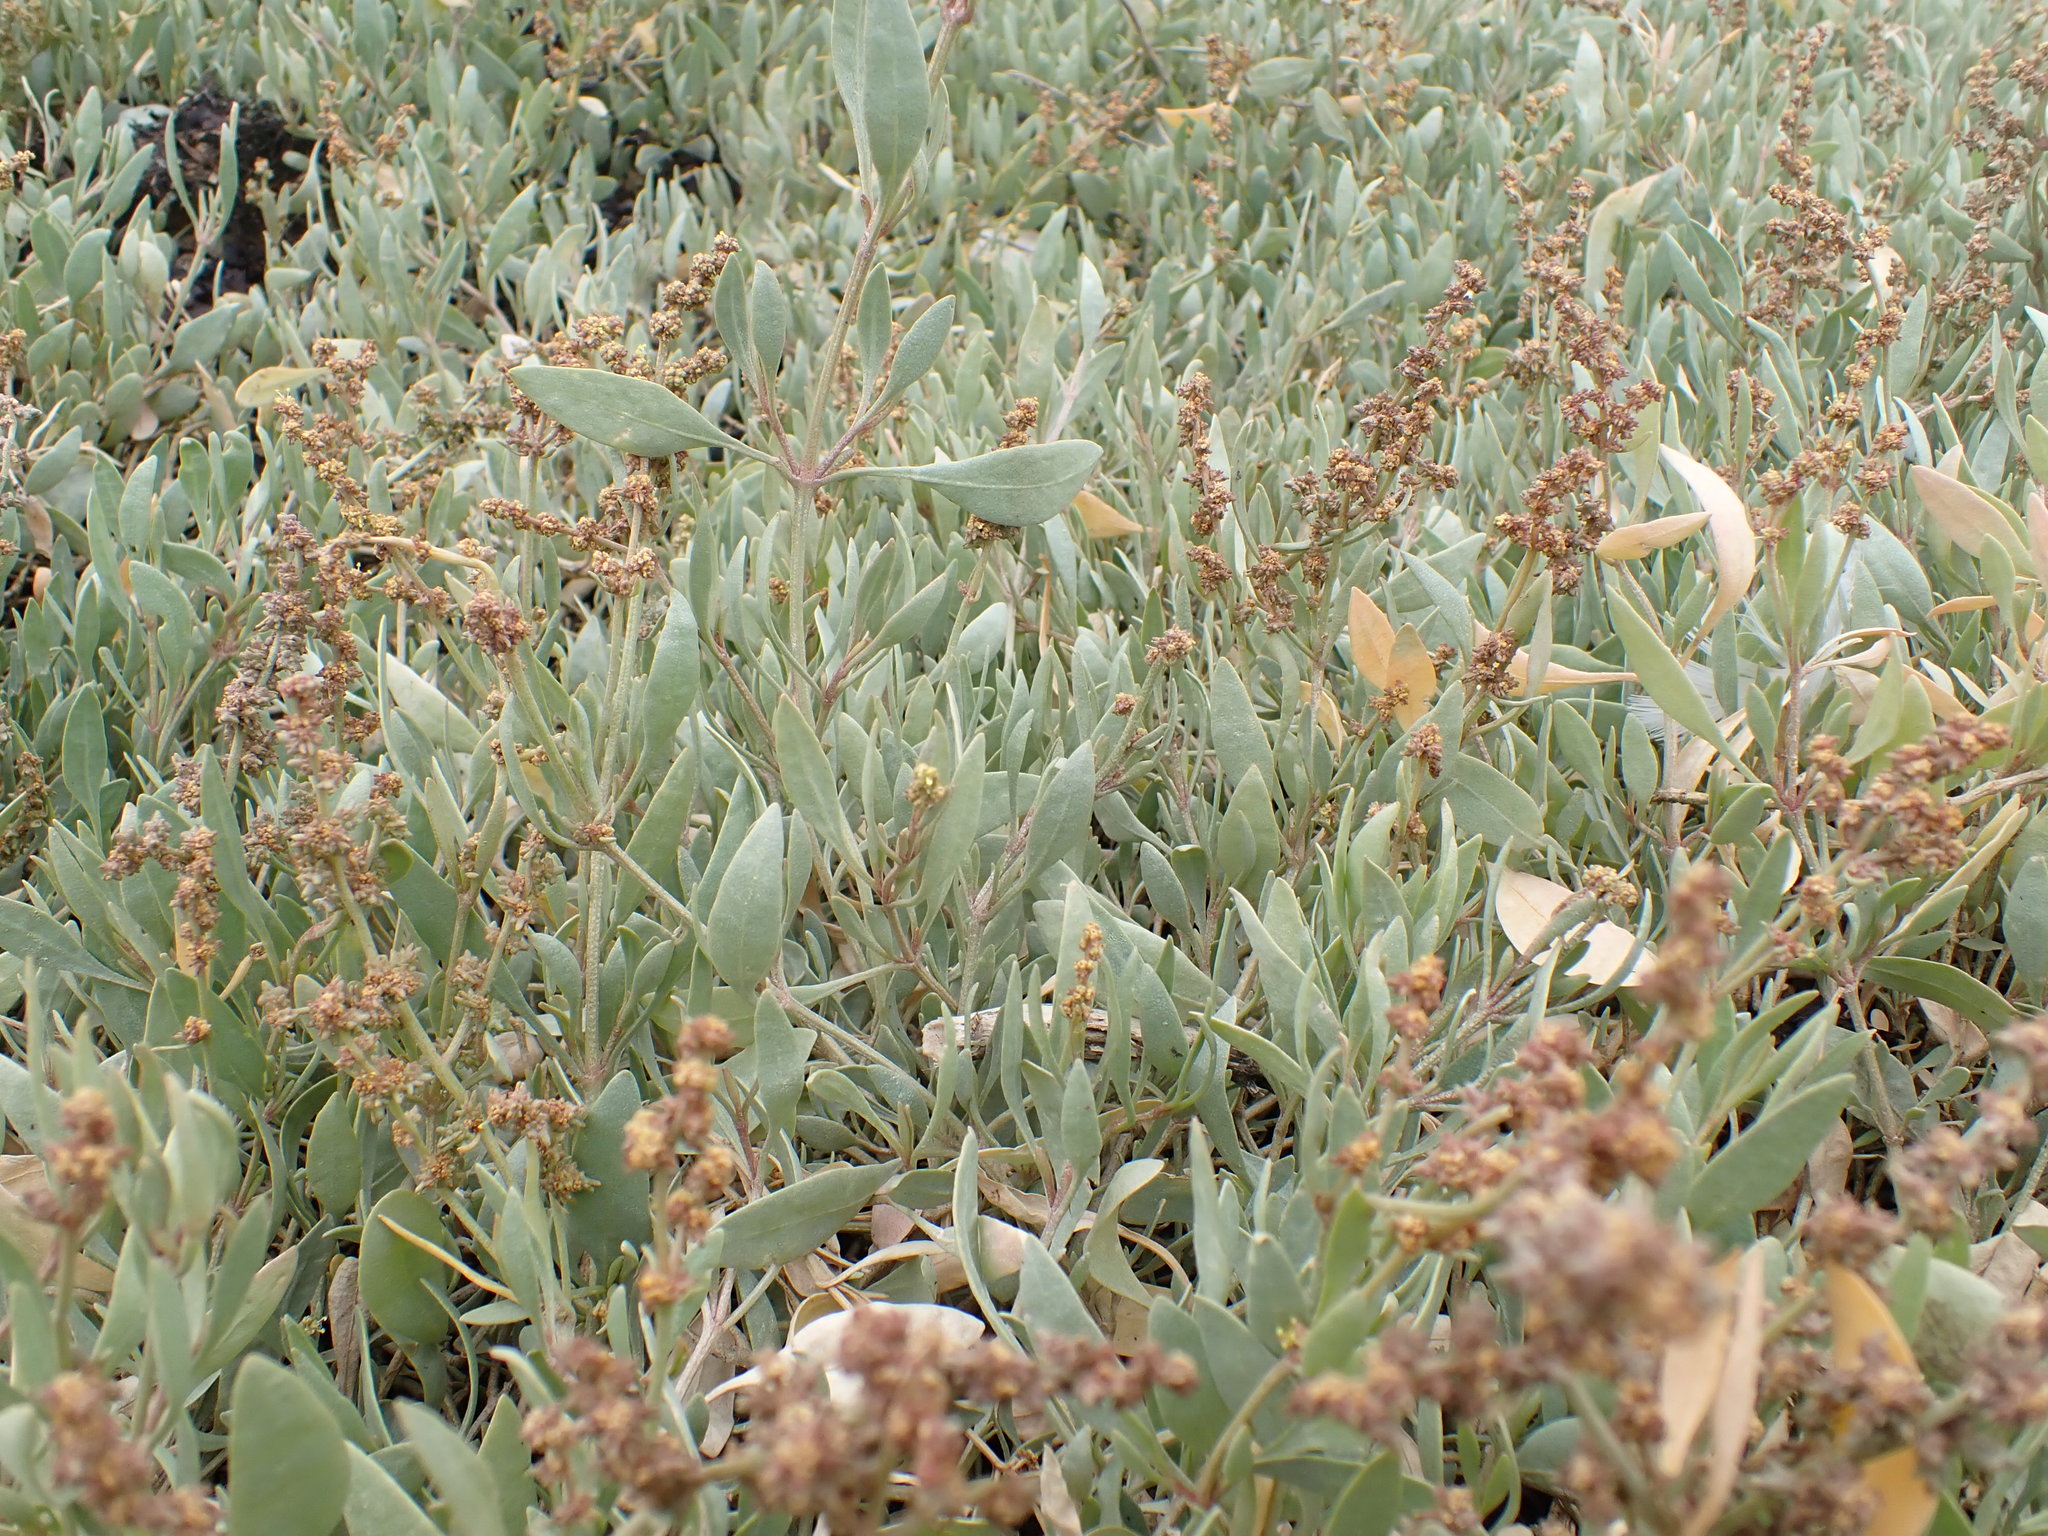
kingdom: Plantae
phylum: Tracheophyta
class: Magnoliopsida
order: Caryophyllales
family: Amaranthaceae
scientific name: Amaranthaceae
